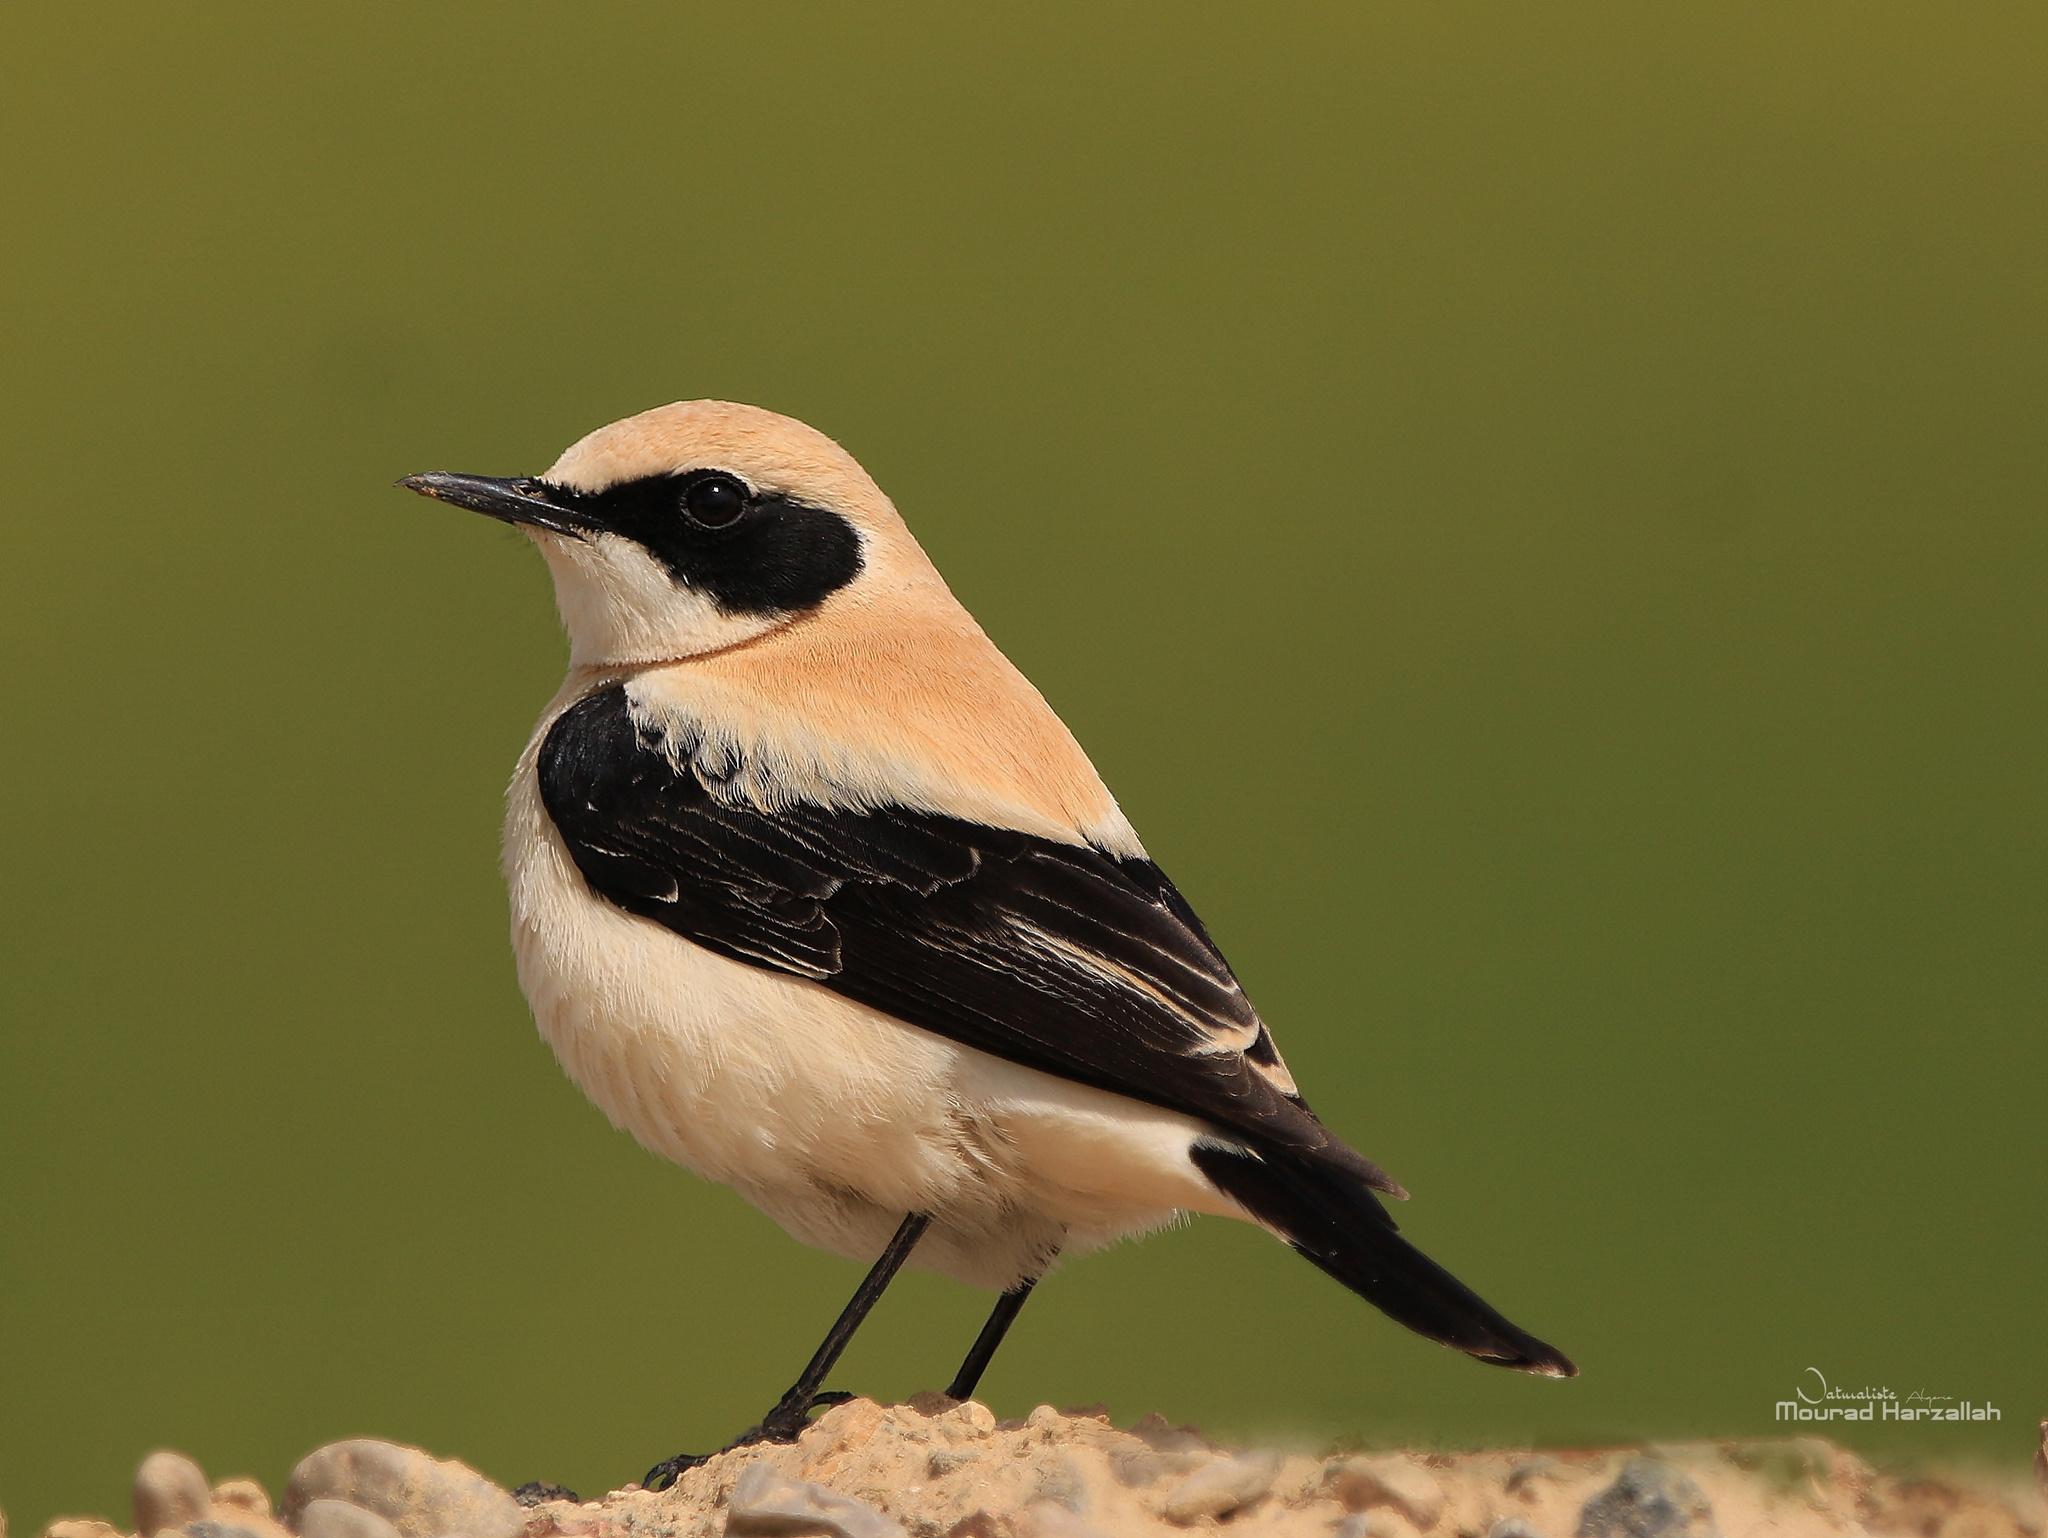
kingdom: Animalia
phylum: Chordata
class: Aves
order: Passeriformes
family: Muscicapidae
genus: Oenanthe
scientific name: Oenanthe hispanica
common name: Black-eared wheatear
